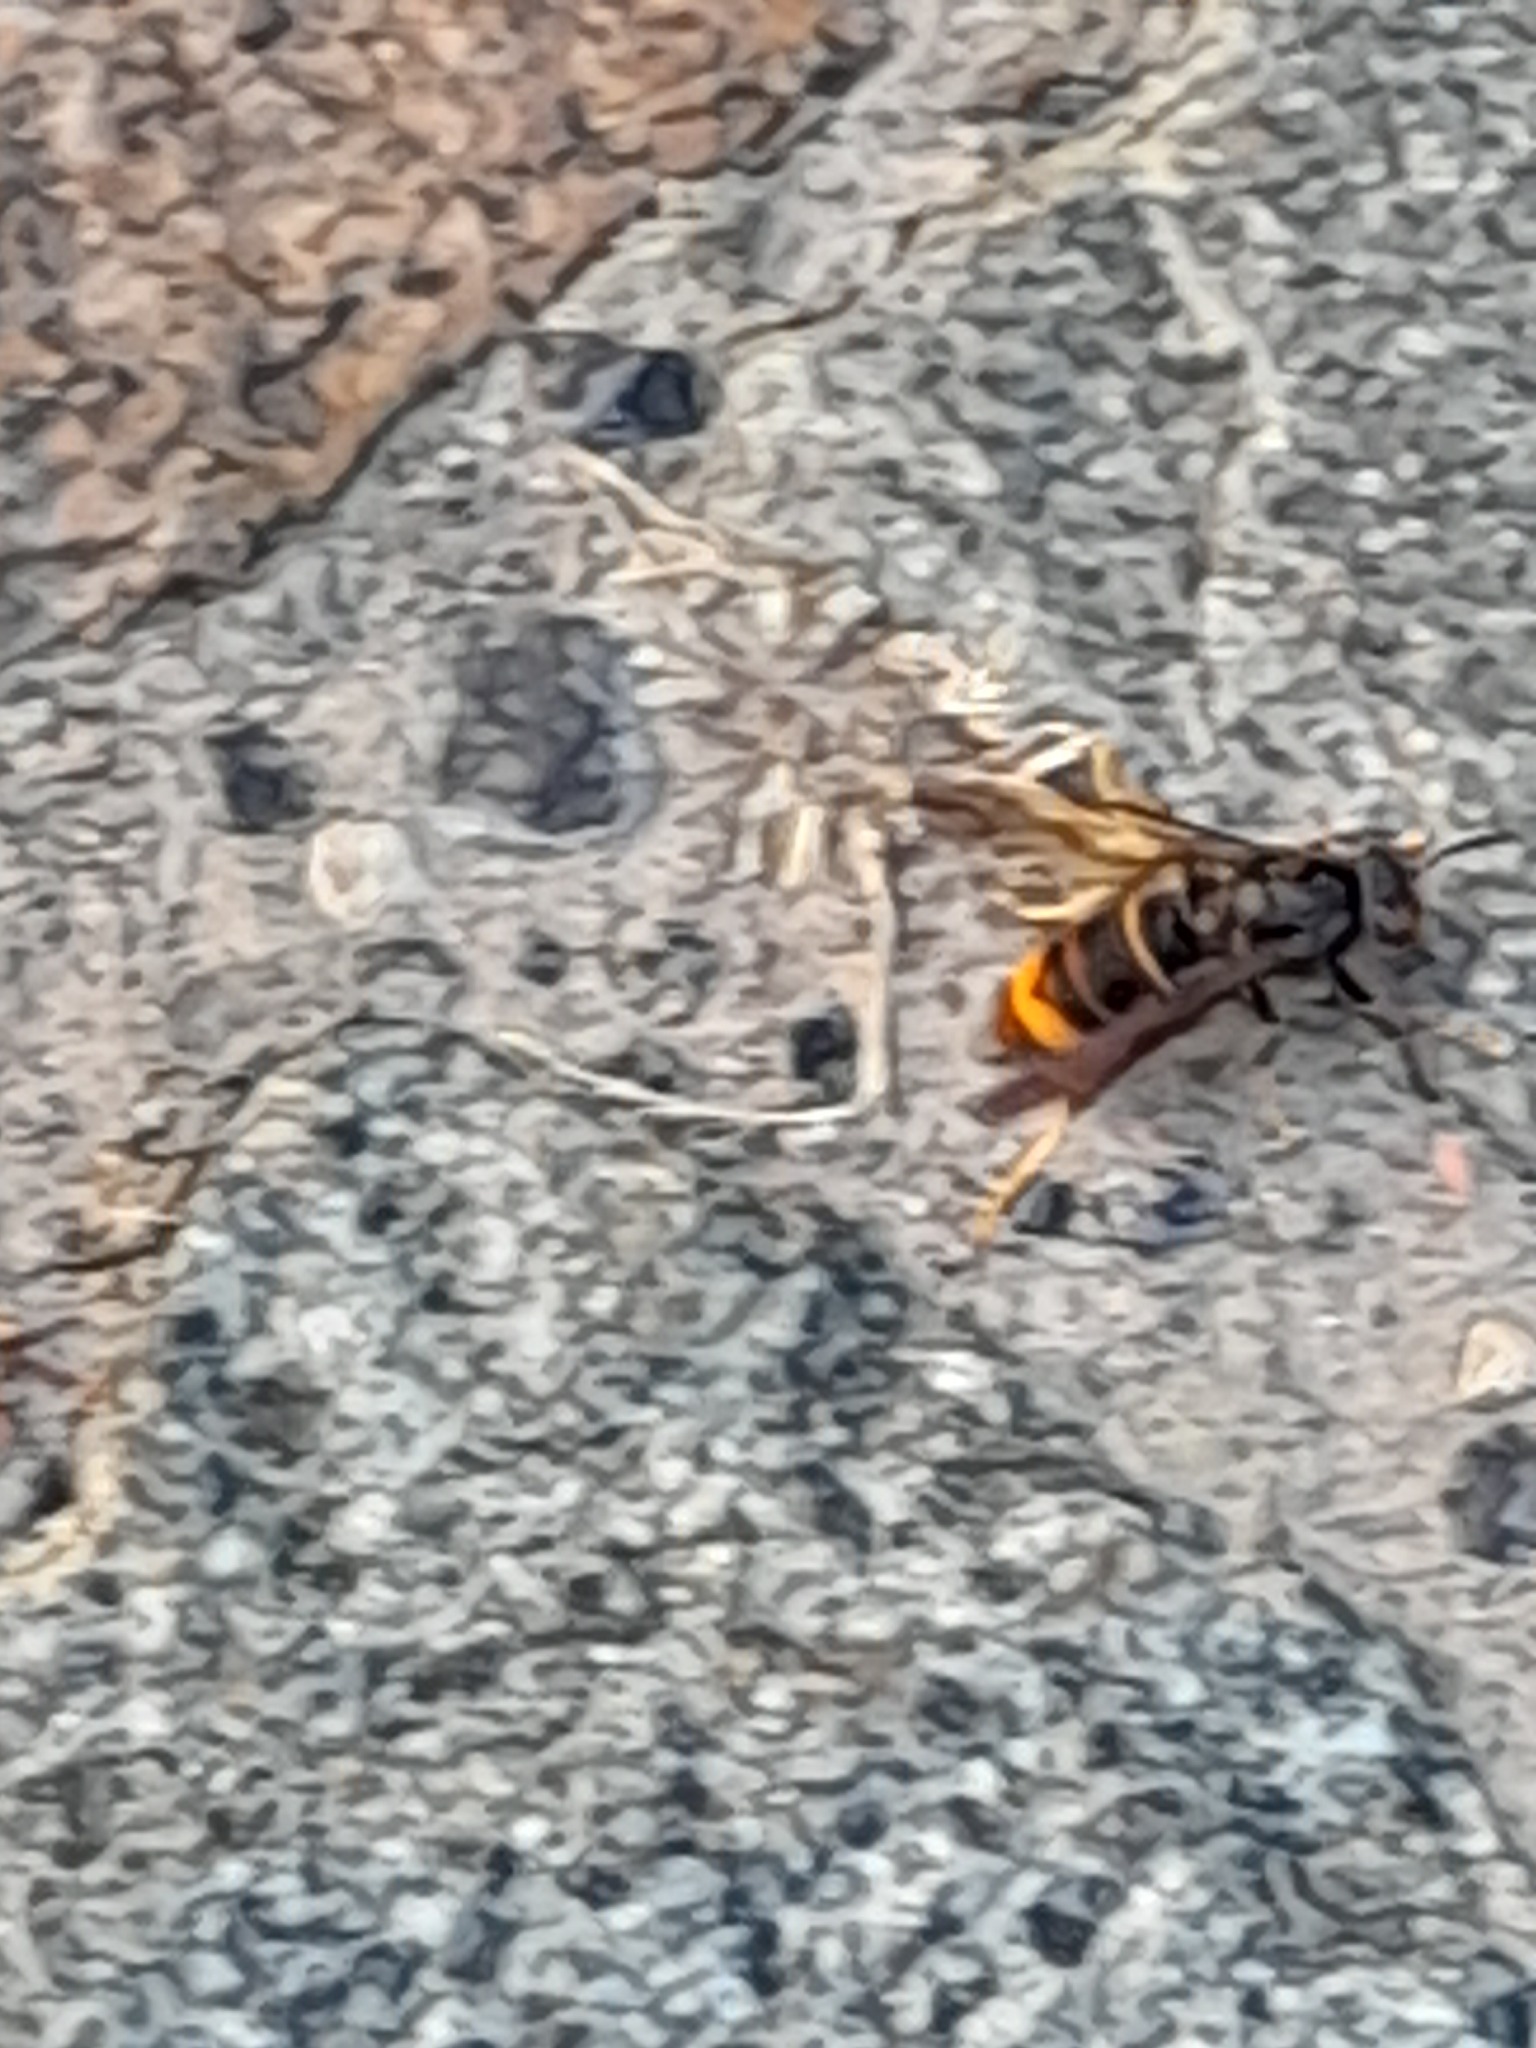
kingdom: Animalia
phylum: Arthropoda
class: Insecta
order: Hymenoptera
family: Vespidae
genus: Vespa
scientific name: Vespa velutina
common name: Asian hornet
